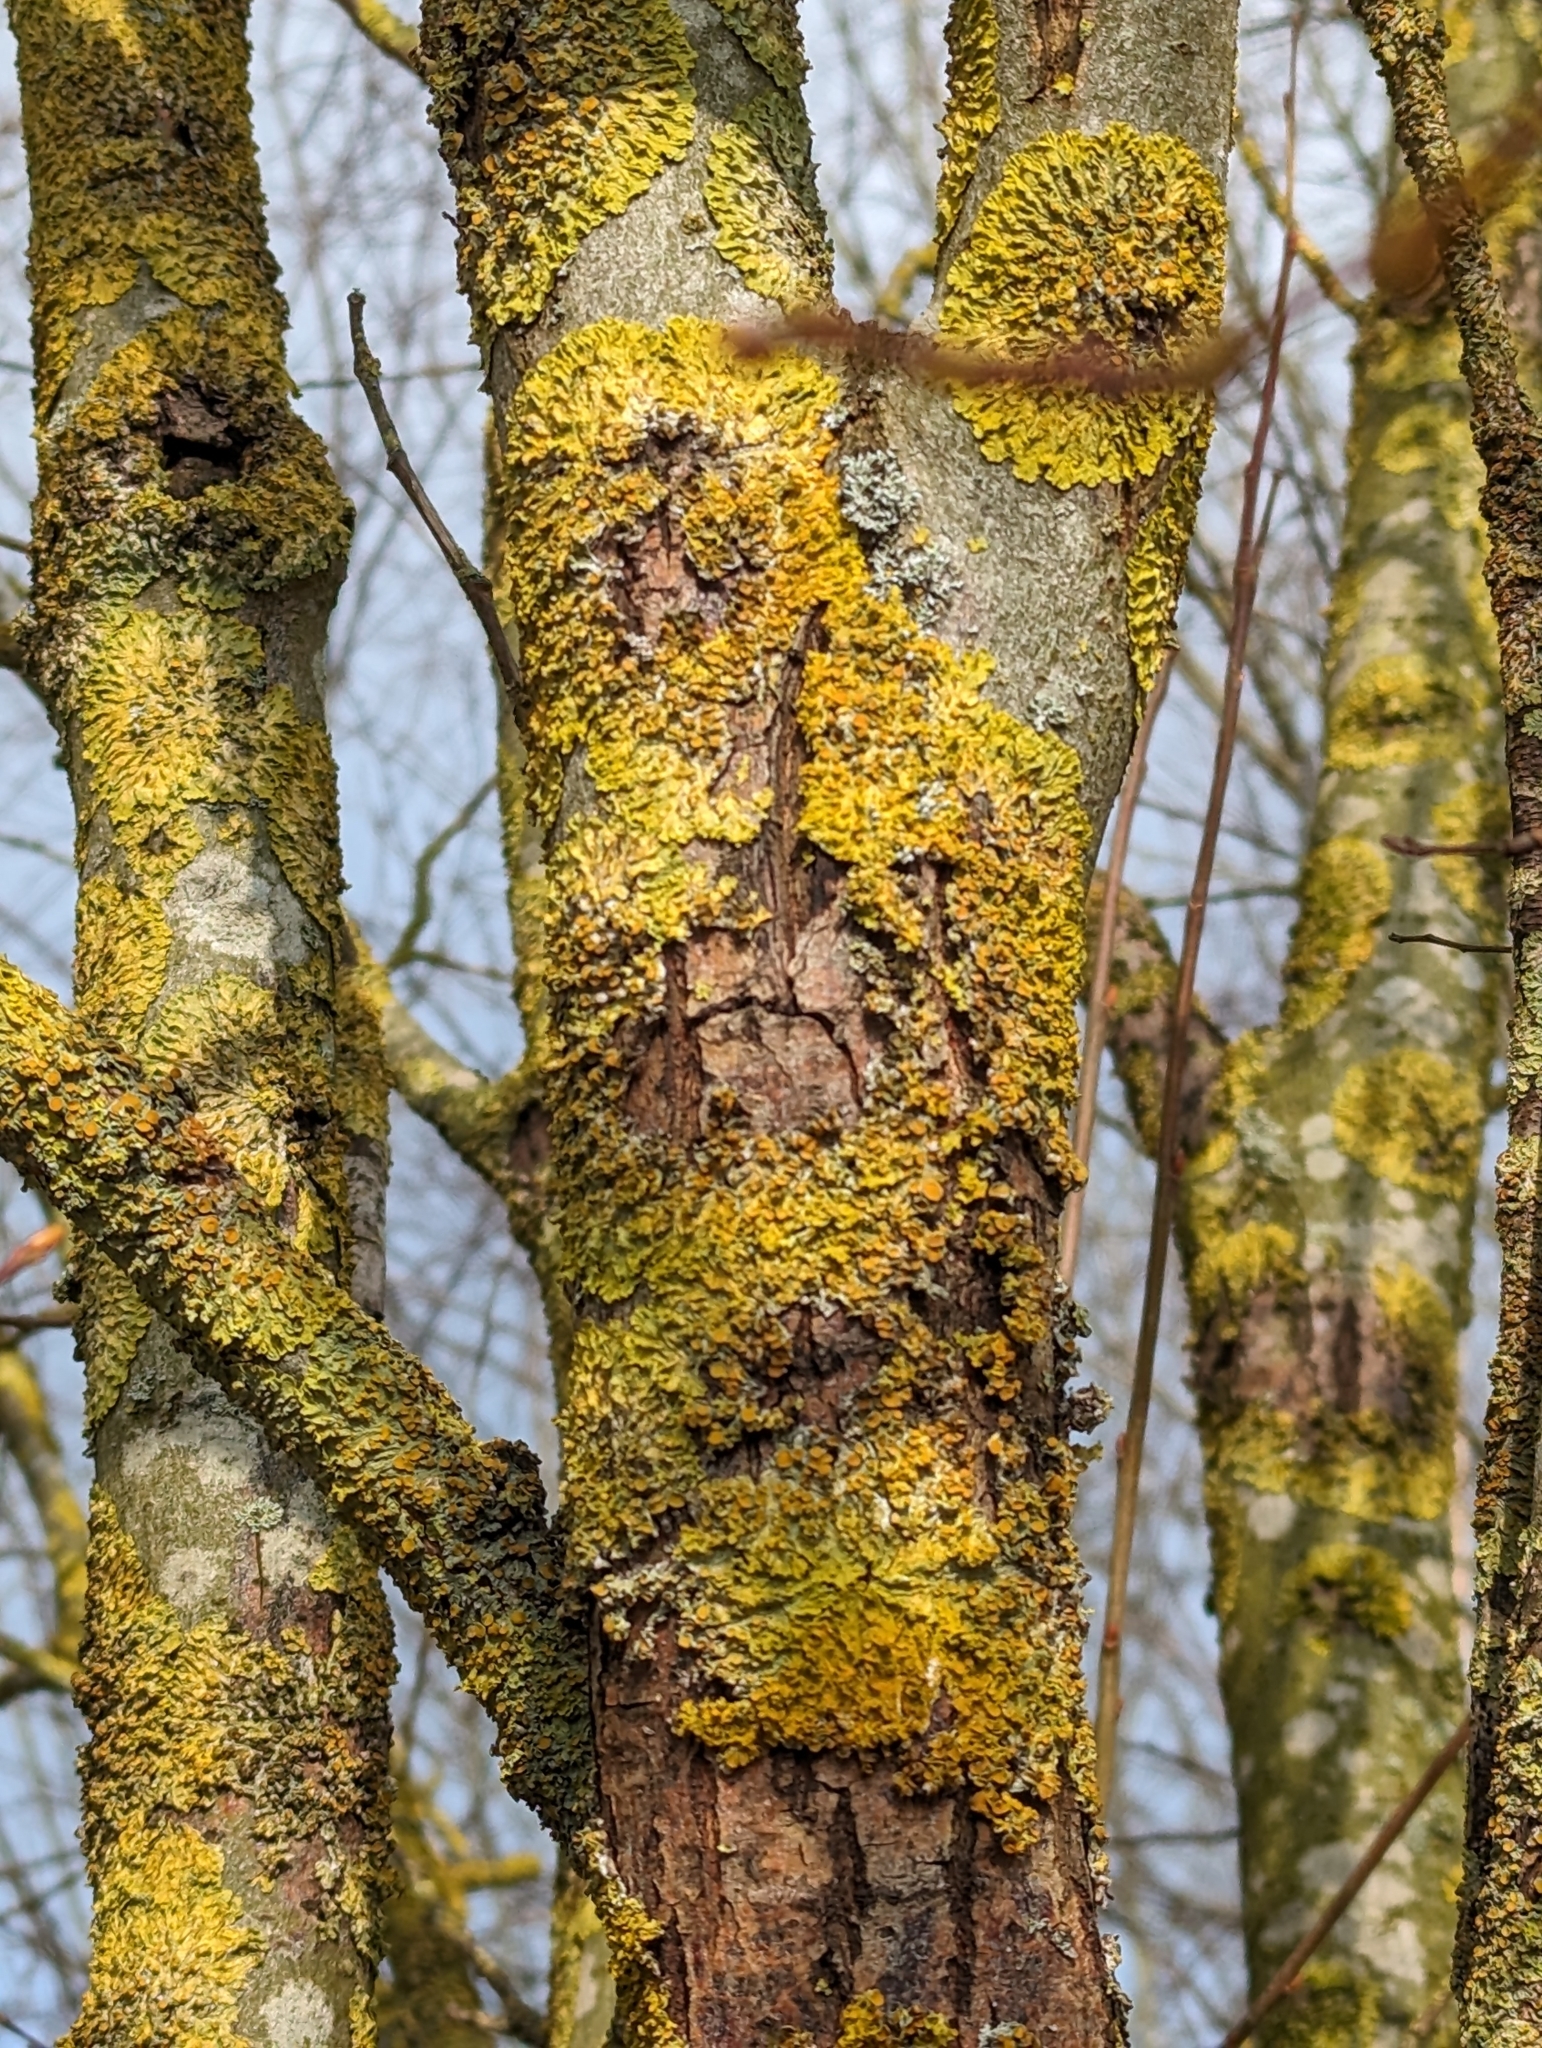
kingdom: Fungi
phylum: Ascomycota
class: Lecanoromycetes
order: Teloschistales
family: Teloschistaceae
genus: Xanthoria
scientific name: Xanthoria parietina
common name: Common orange lichen
